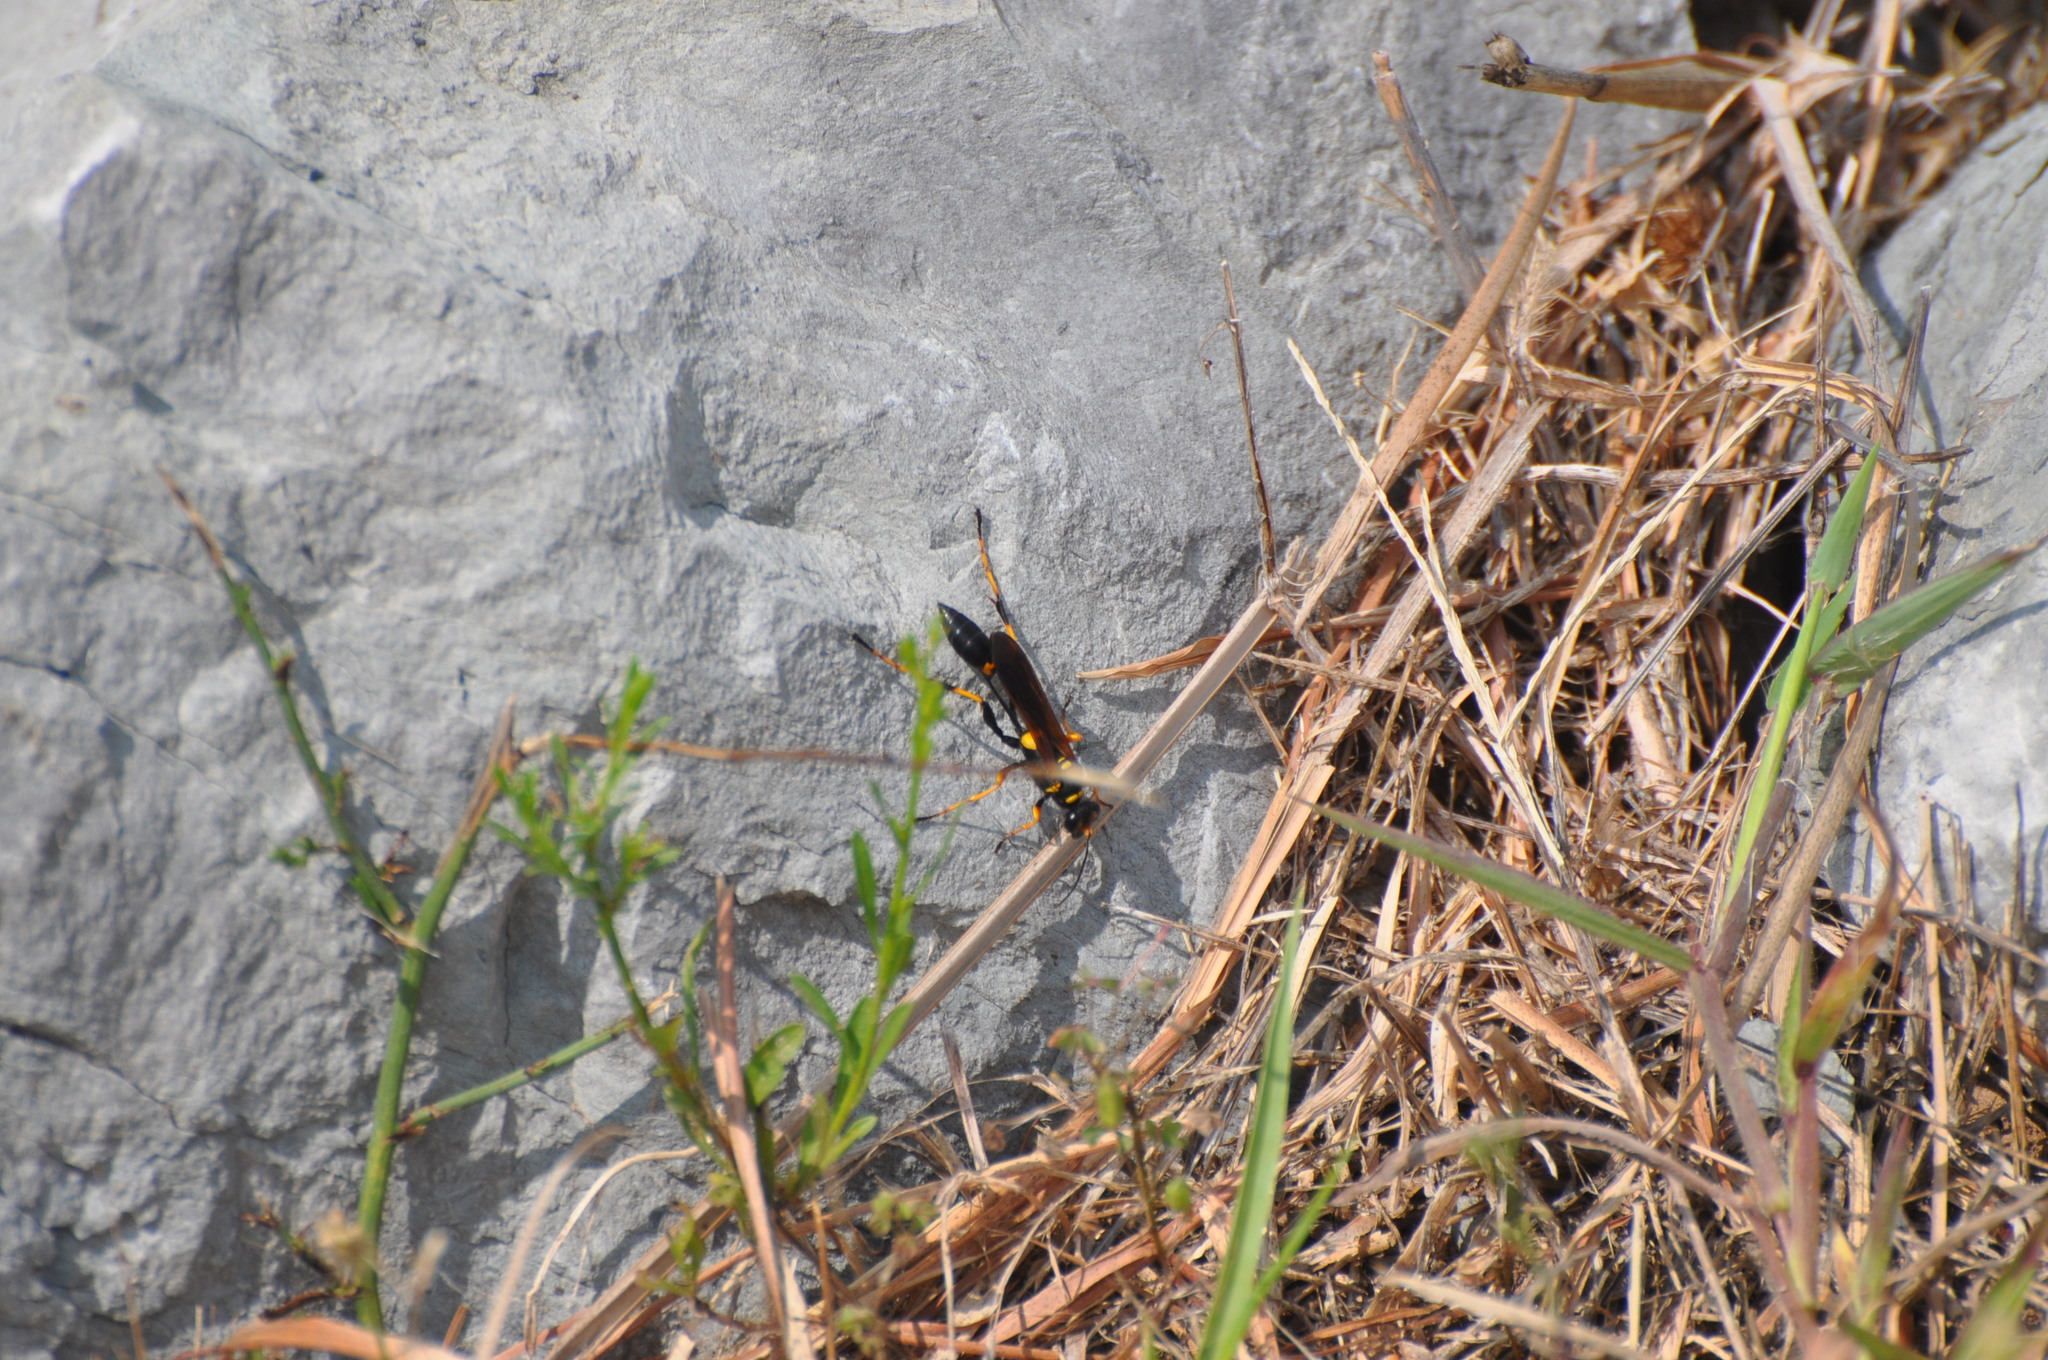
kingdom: Animalia
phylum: Arthropoda
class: Insecta
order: Hymenoptera
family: Sphecidae
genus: Sceliphron
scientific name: Sceliphron caementarium
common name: Mud dauber
